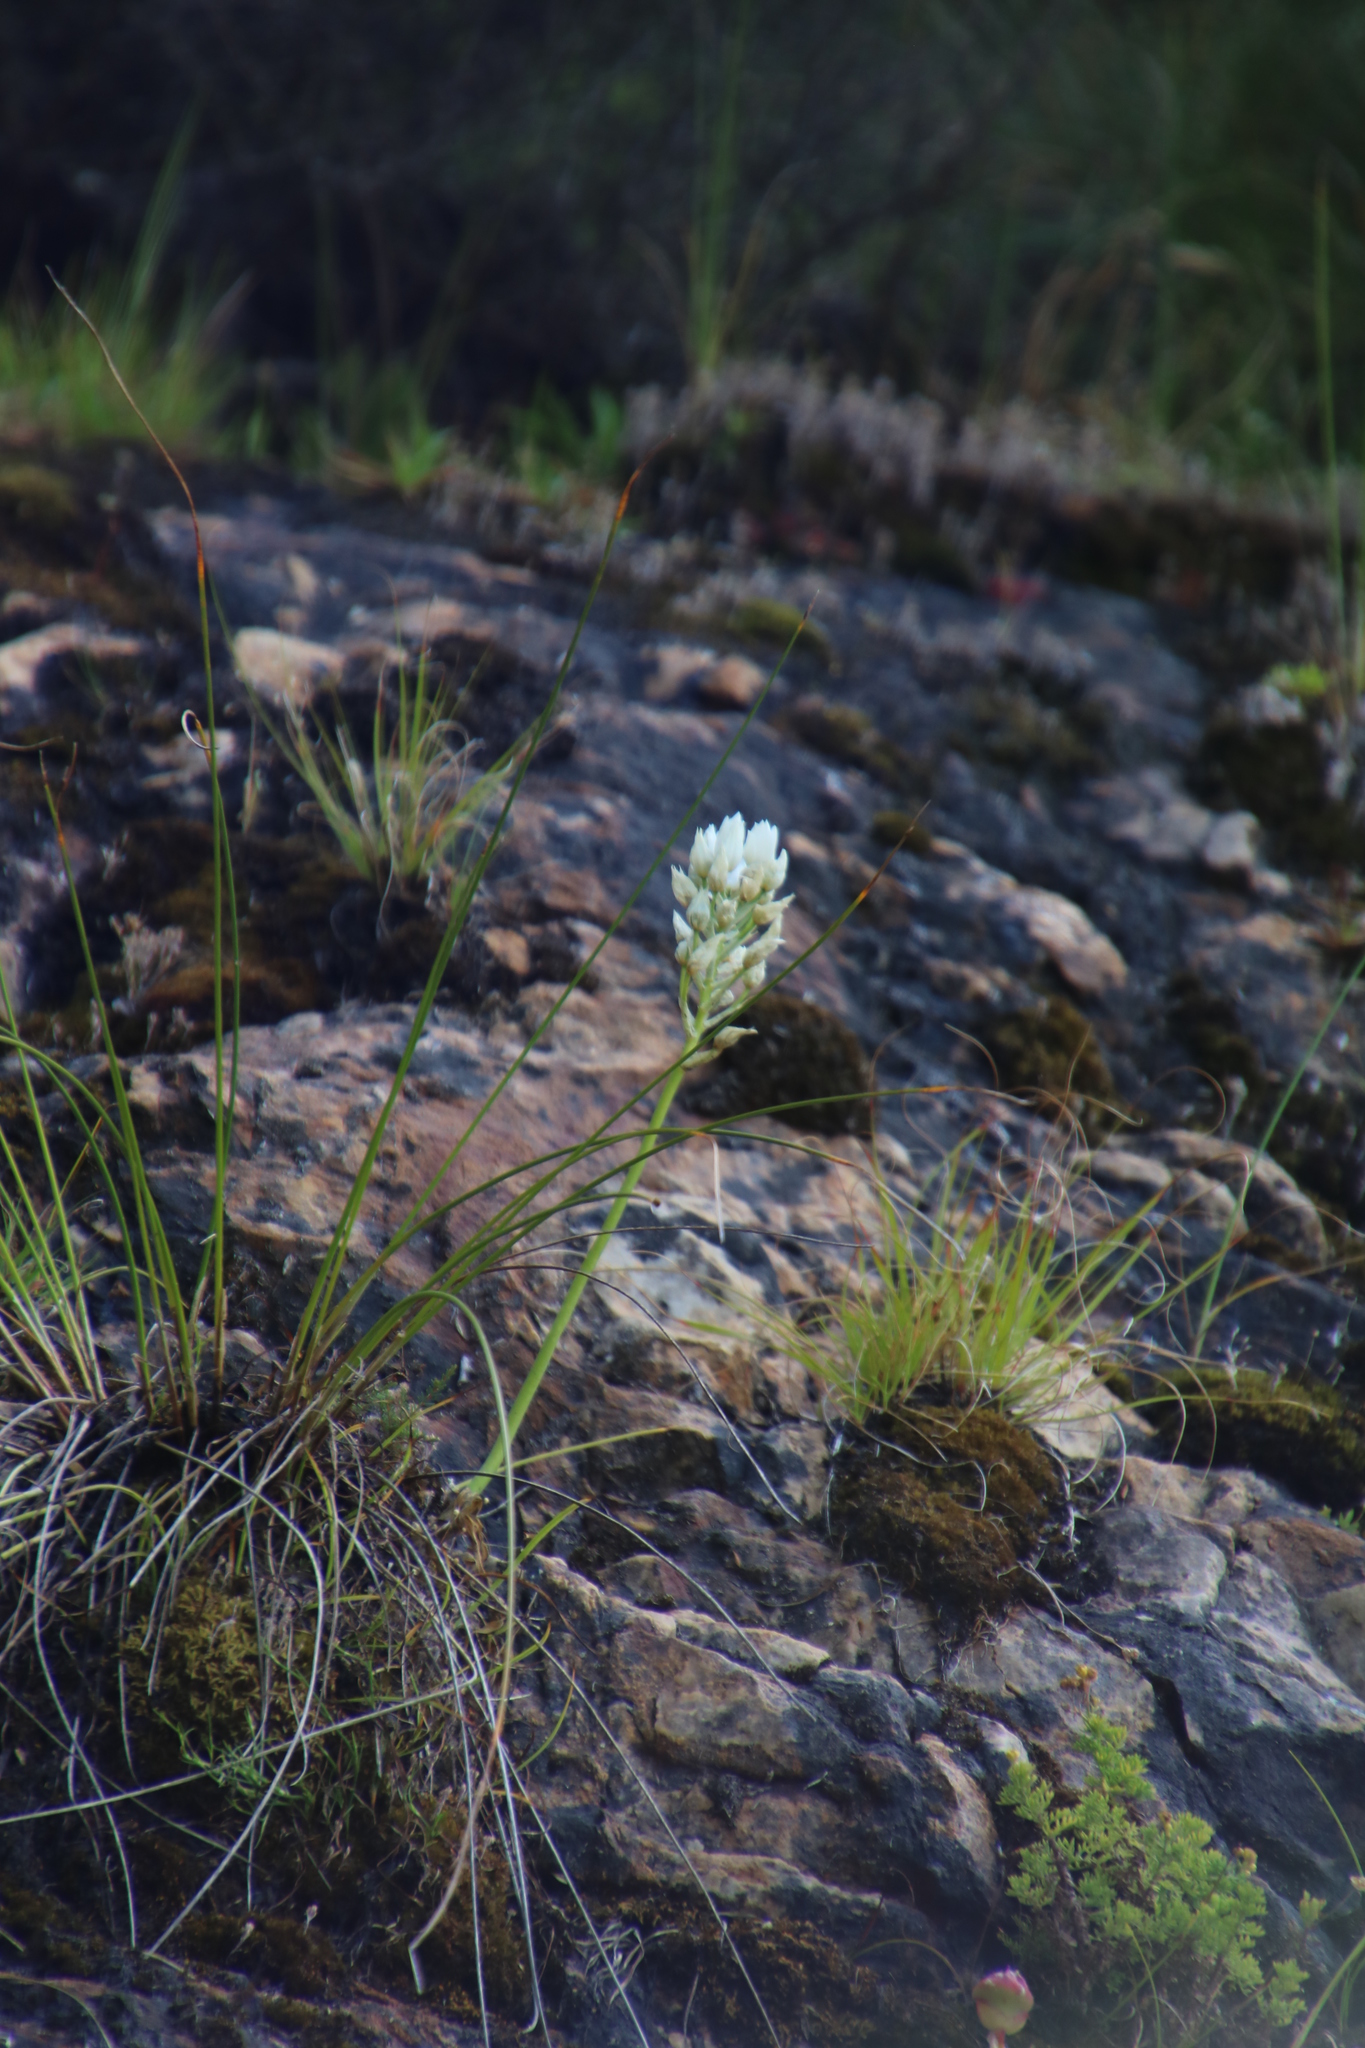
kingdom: Plantae
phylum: Tracheophyta
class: Liliopsida
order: Asparagales
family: Asparagaceae
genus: Ornithogalum
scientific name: Ornithogalum thyrsoides
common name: Chincherinchee
